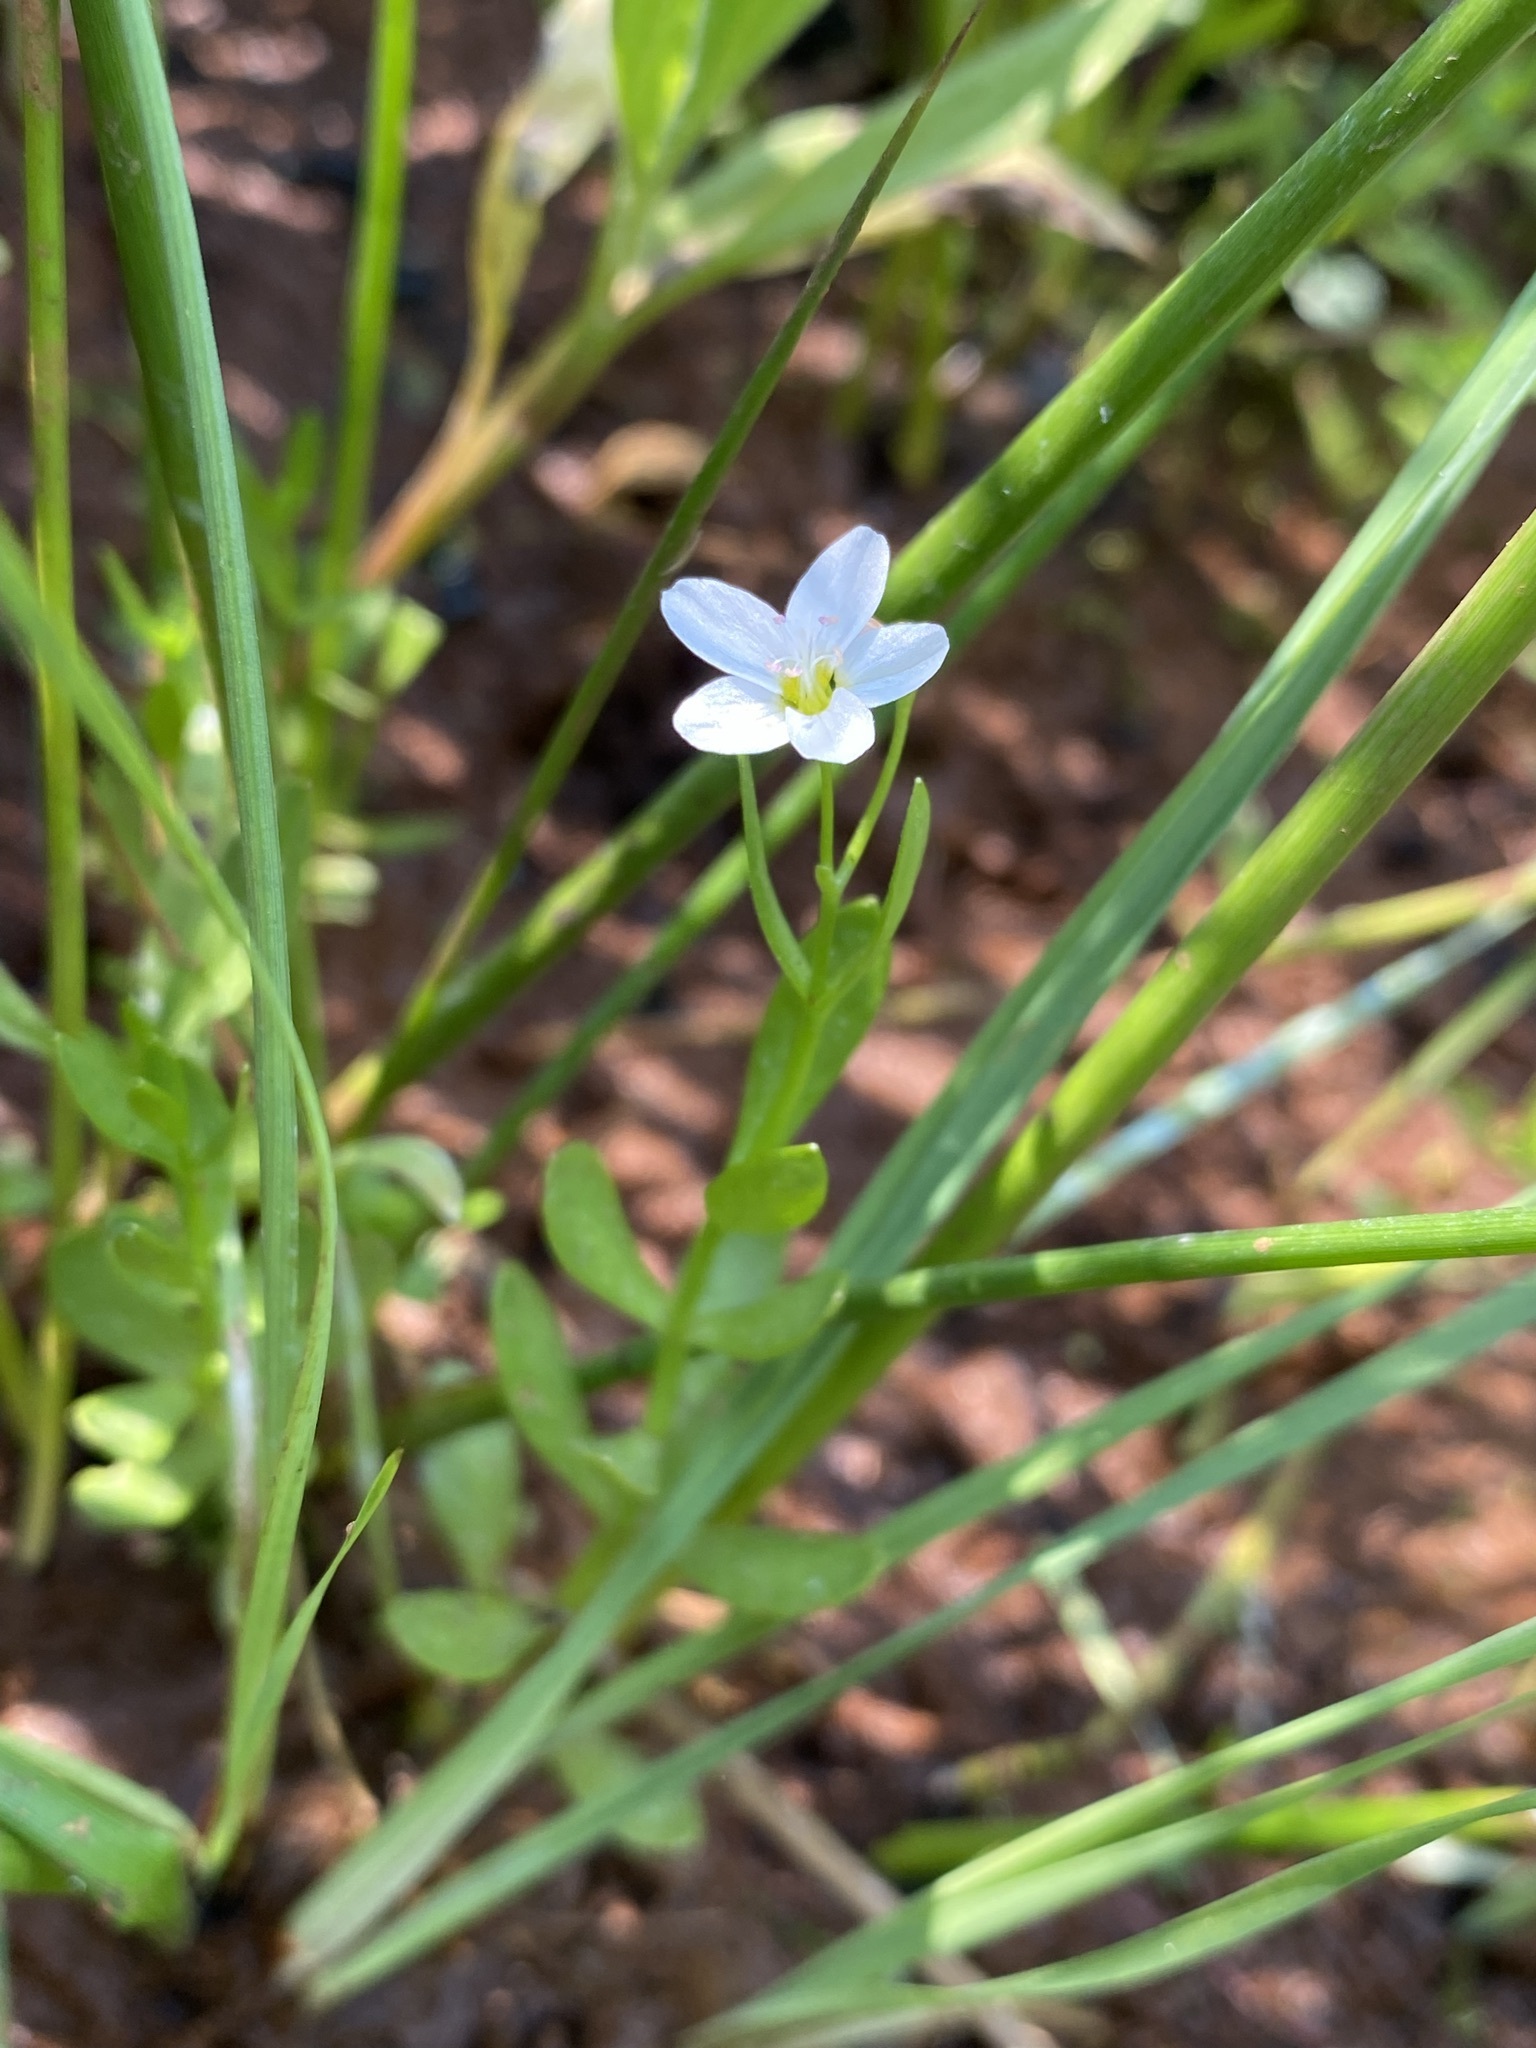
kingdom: Plantae
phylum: Tracheophyta
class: Magnoliopsida
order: Caryophyllales
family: Montiaceae
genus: Montia
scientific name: Montia chamissoi
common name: Chamisso's candyflower
